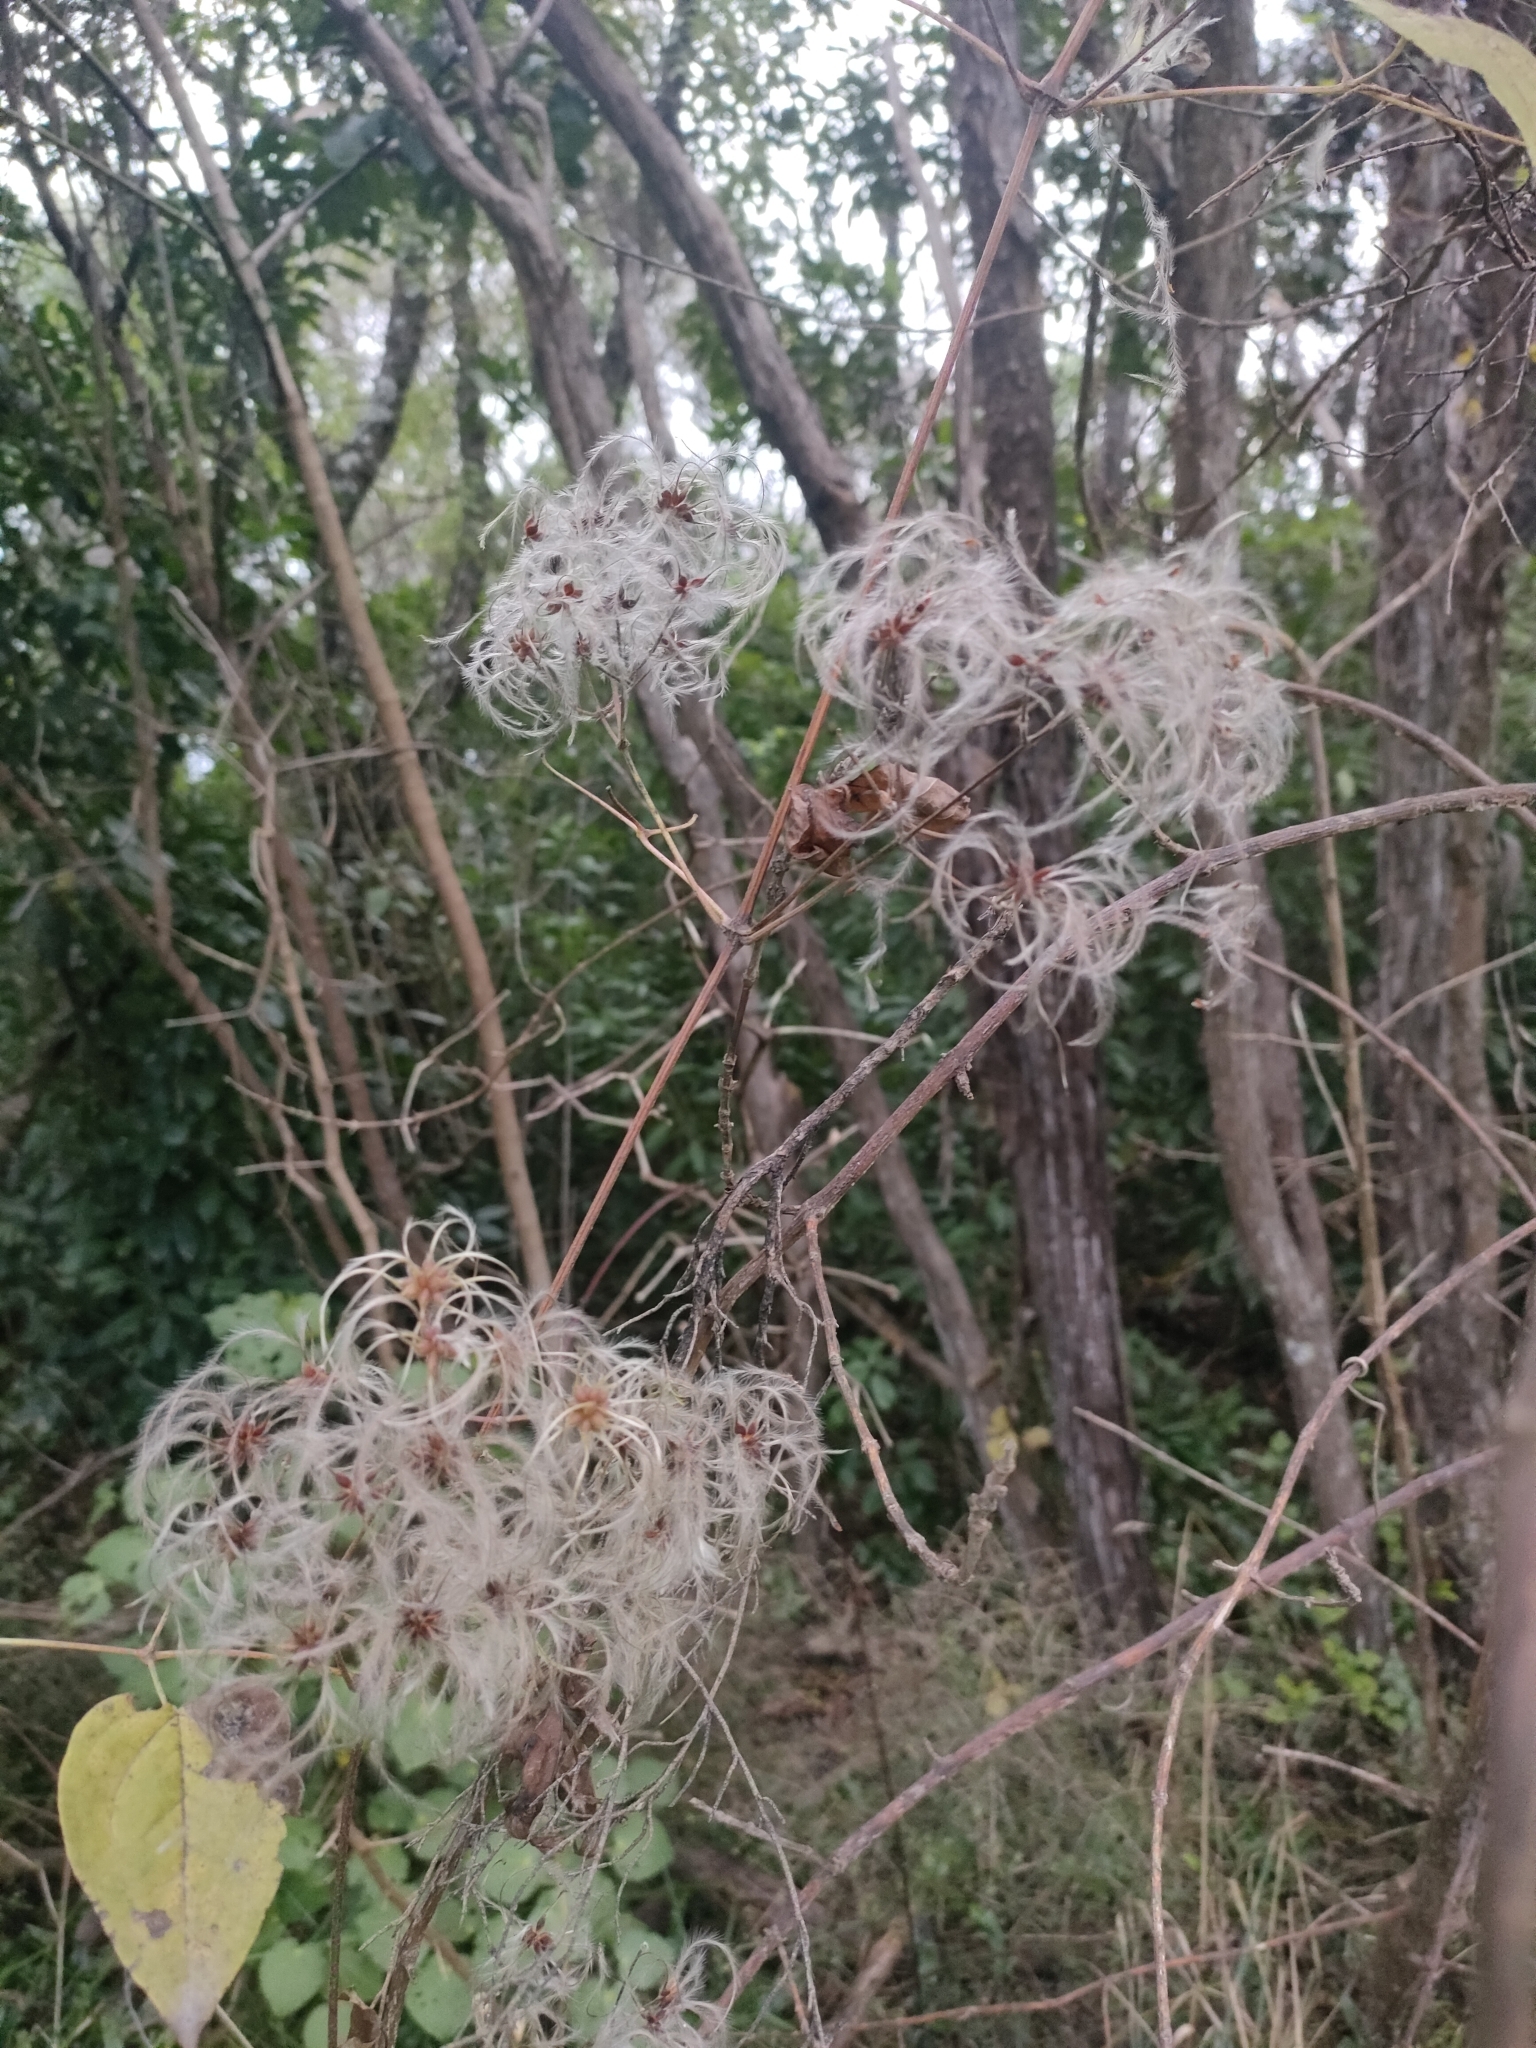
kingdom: Plantae
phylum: Tracheophyta
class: Magnoliopsida
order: Ranunculales
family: Ranunculaceae
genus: Clematis
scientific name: Clematis vitalba
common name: Evergreen clematis
